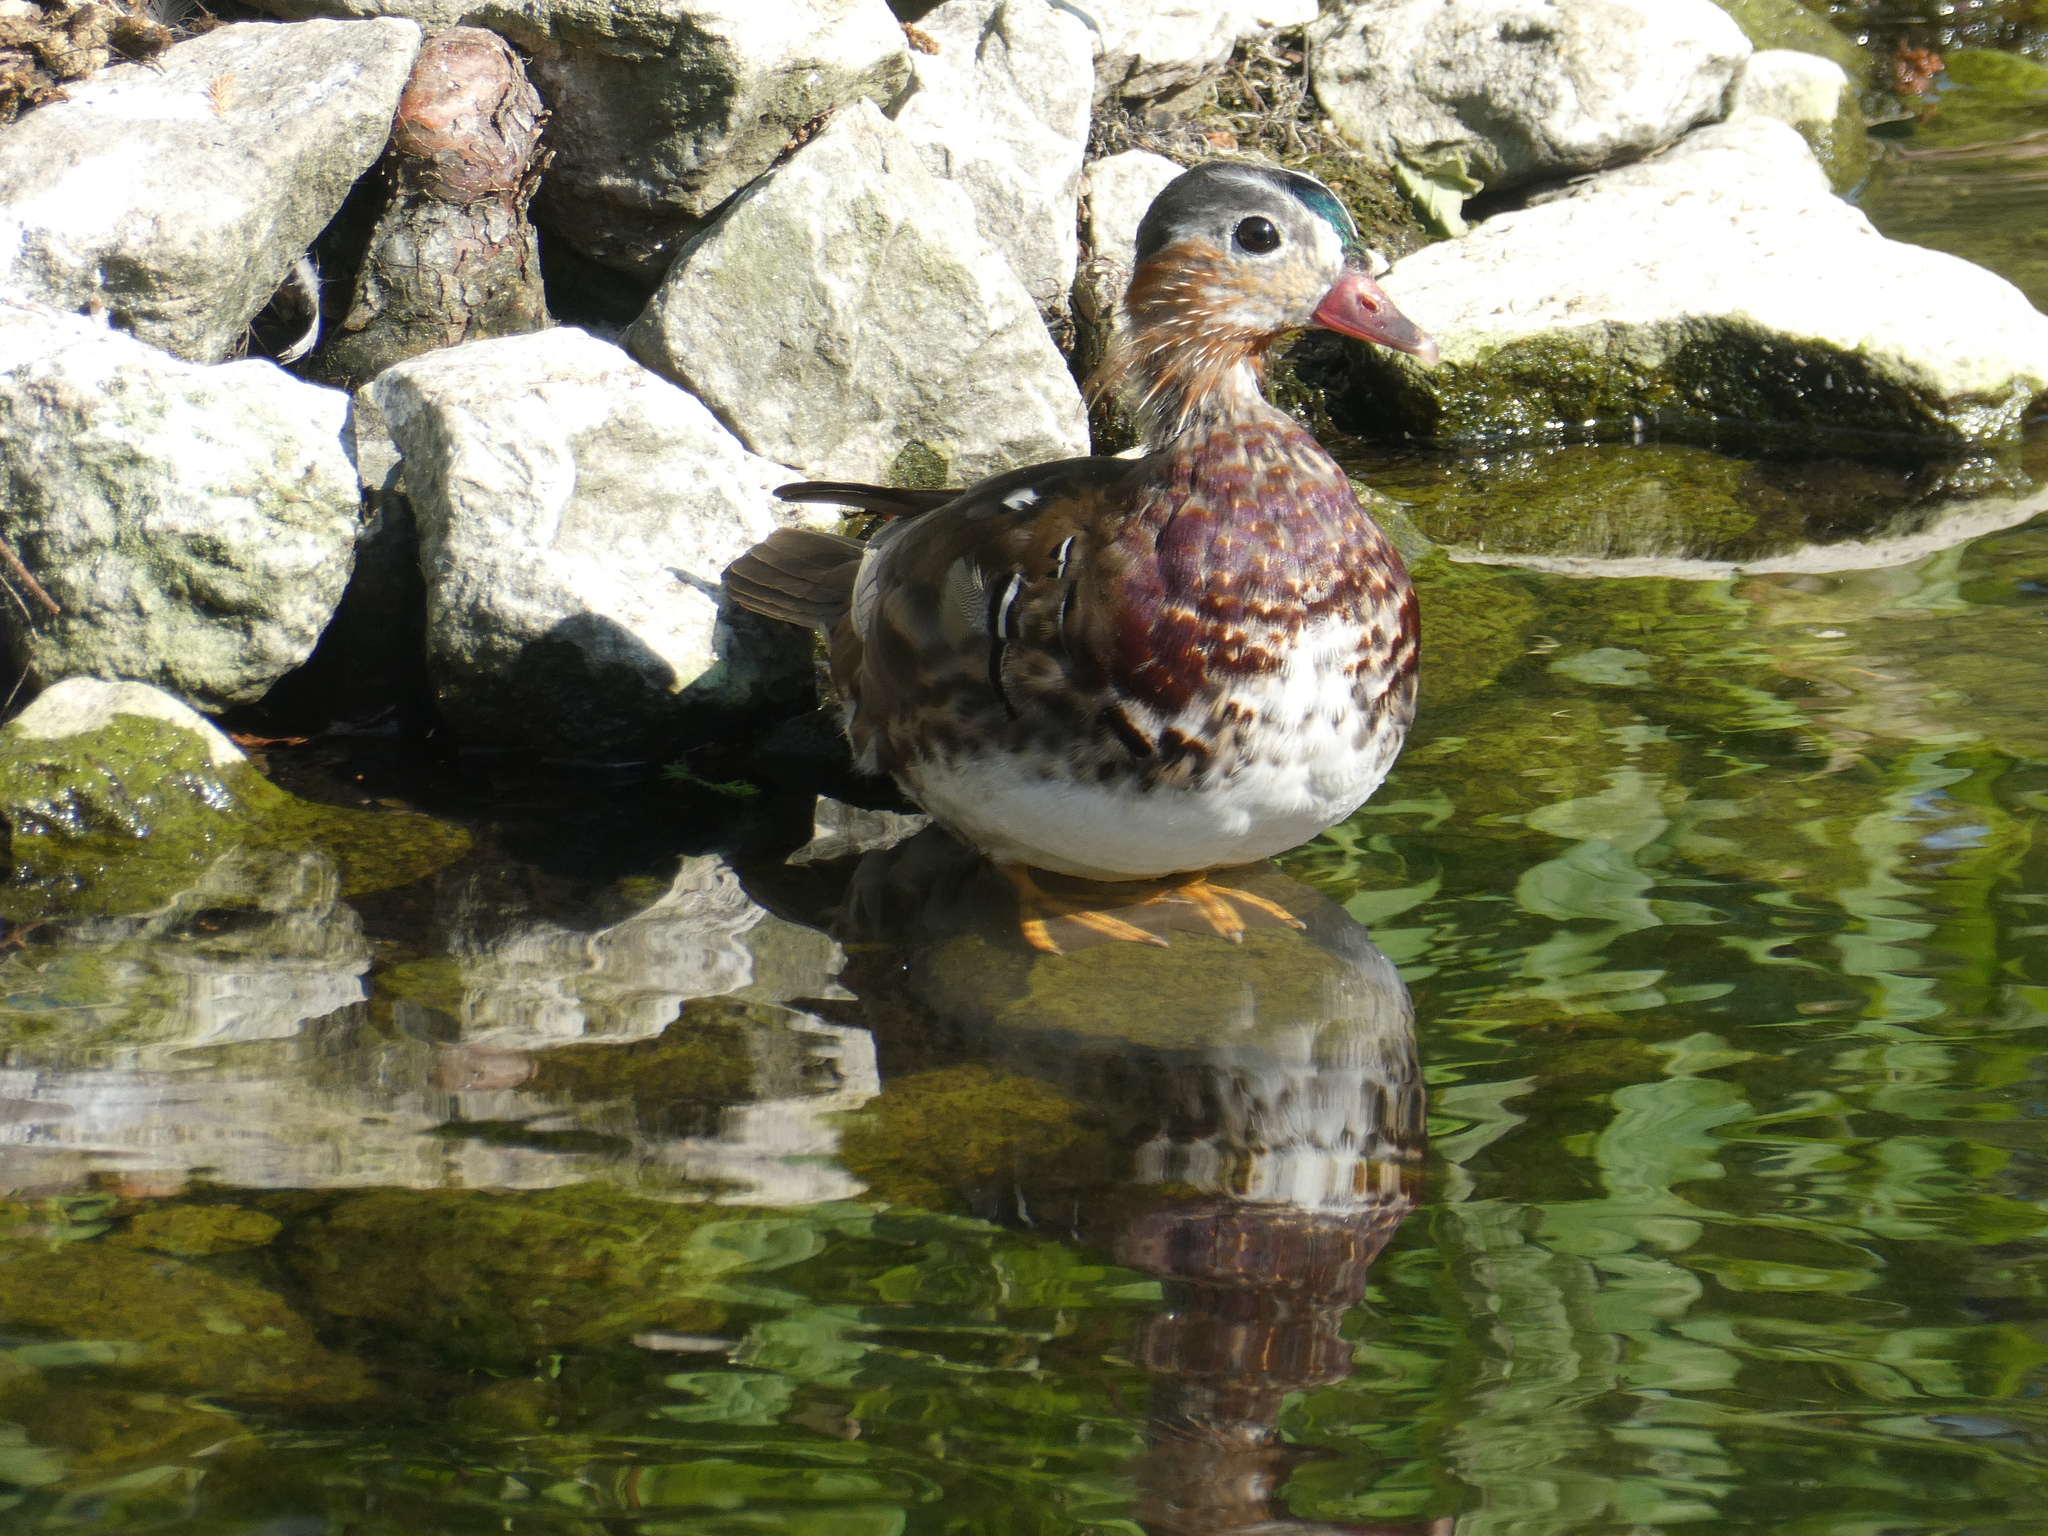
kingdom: Animalia
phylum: Chordata
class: Aves
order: Anseriformes
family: Anatidae
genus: Aix
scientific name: Aix galericulata
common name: Mandarin duck
